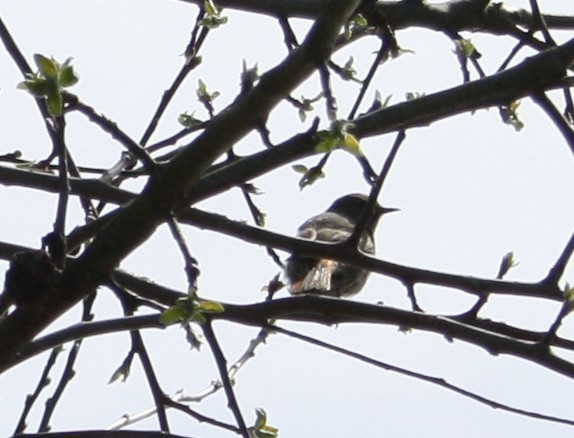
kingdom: Animalia
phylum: Chordata
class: Aves
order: Passeriformes
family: Muscicapidae
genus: Phoenicurus
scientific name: Phoenicurus ochruros
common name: Black redstart
